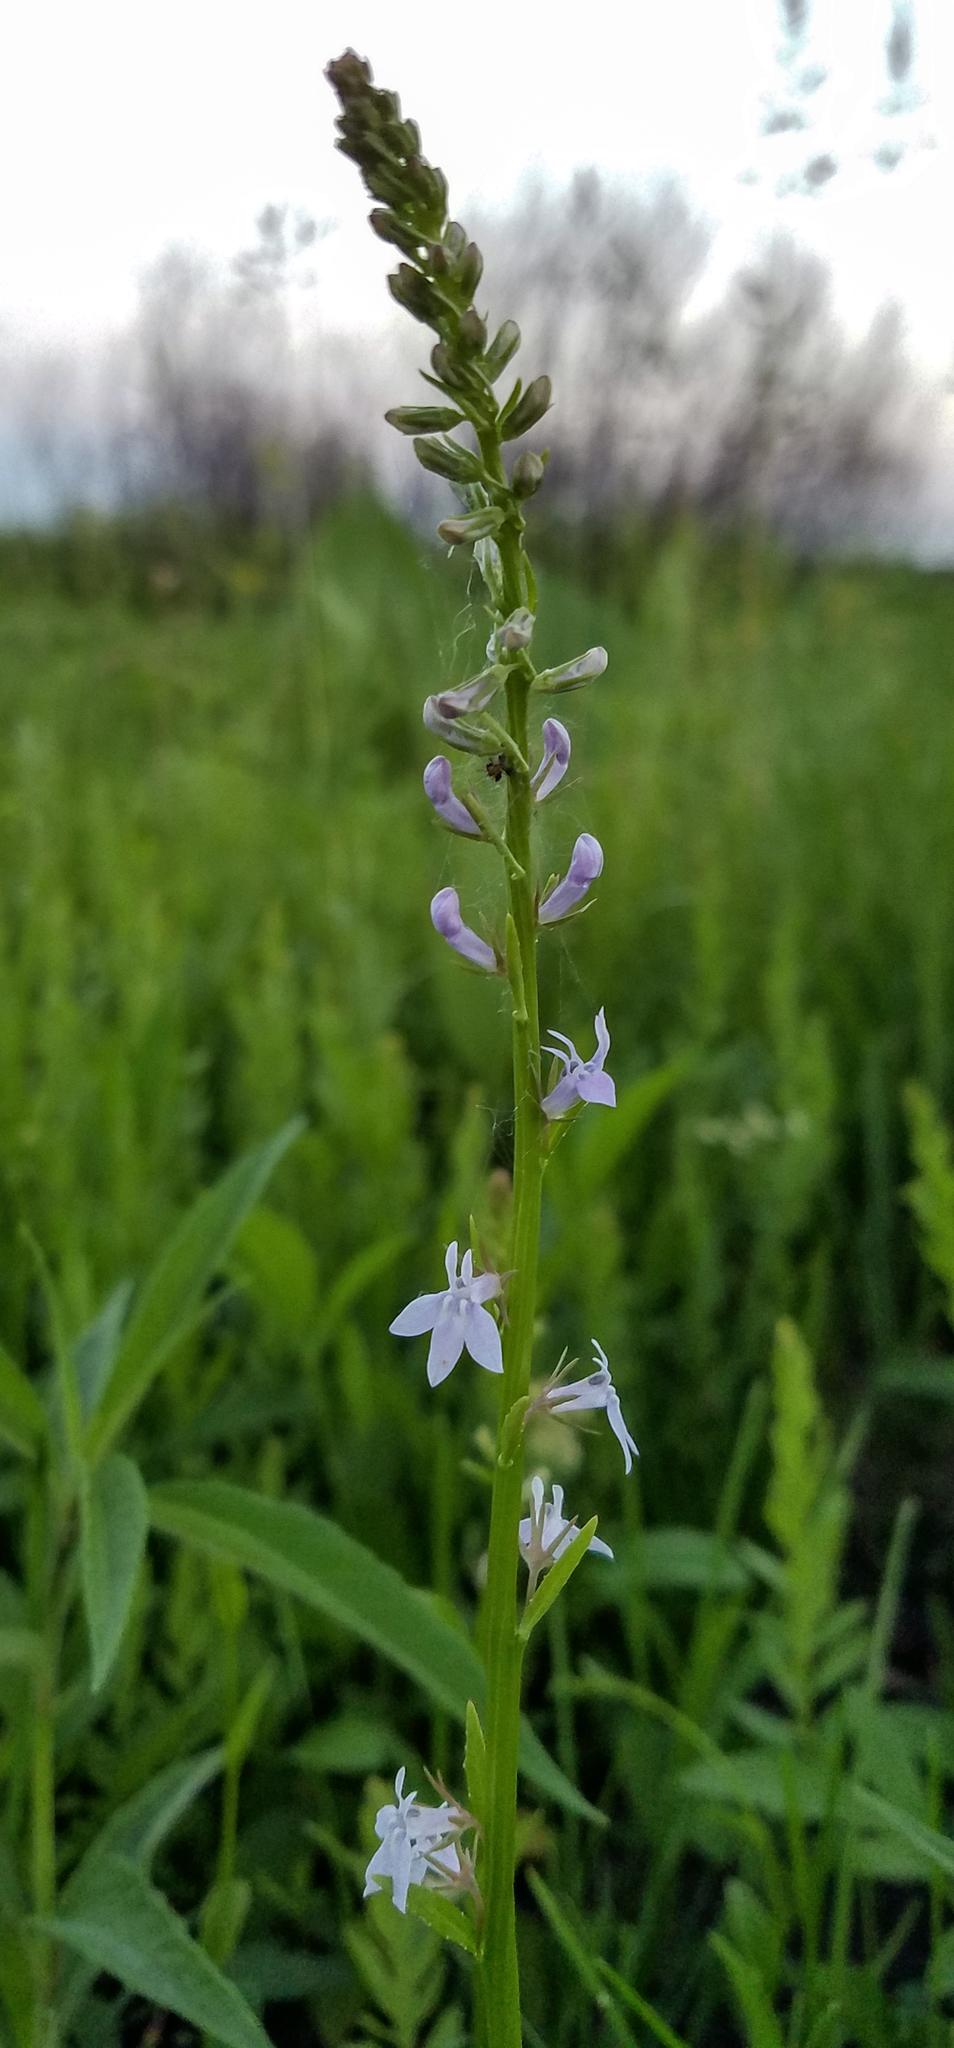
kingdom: Plantae
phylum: Tracheophyta
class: Magnoliopsida
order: Asterales
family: Campanulaceae
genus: Lobelia
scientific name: Lobelia spicata
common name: Pale-spike lobelia
